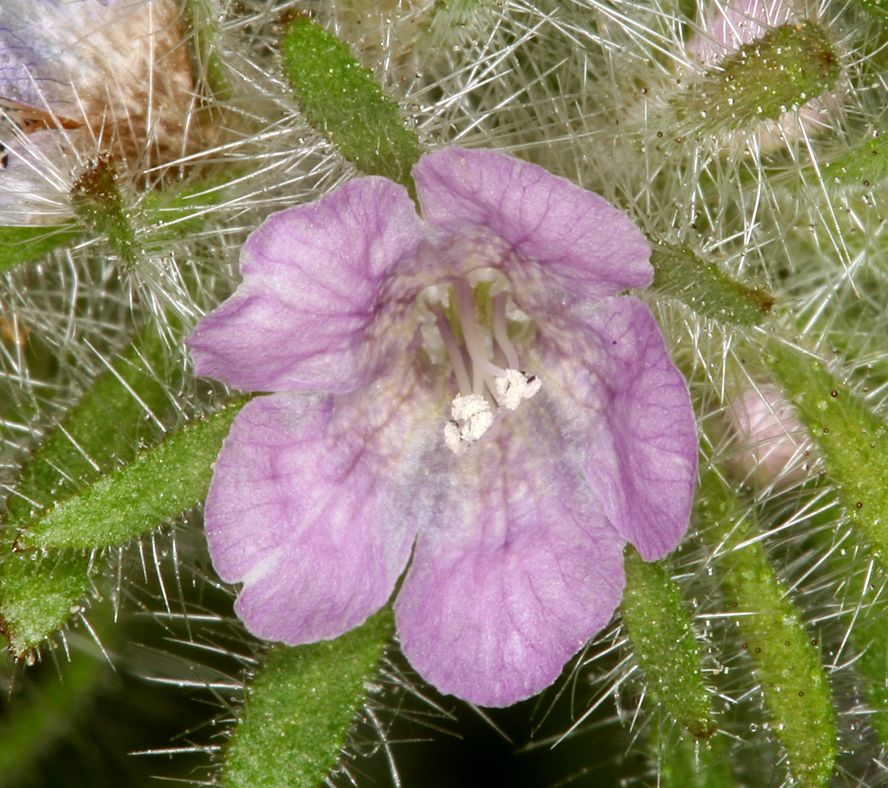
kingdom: Plantae
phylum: Tracheophyta
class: Magnoliopsida
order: Boraginales
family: Hydrophyllaceae
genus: Phacelia
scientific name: Phacelia cryptantha
